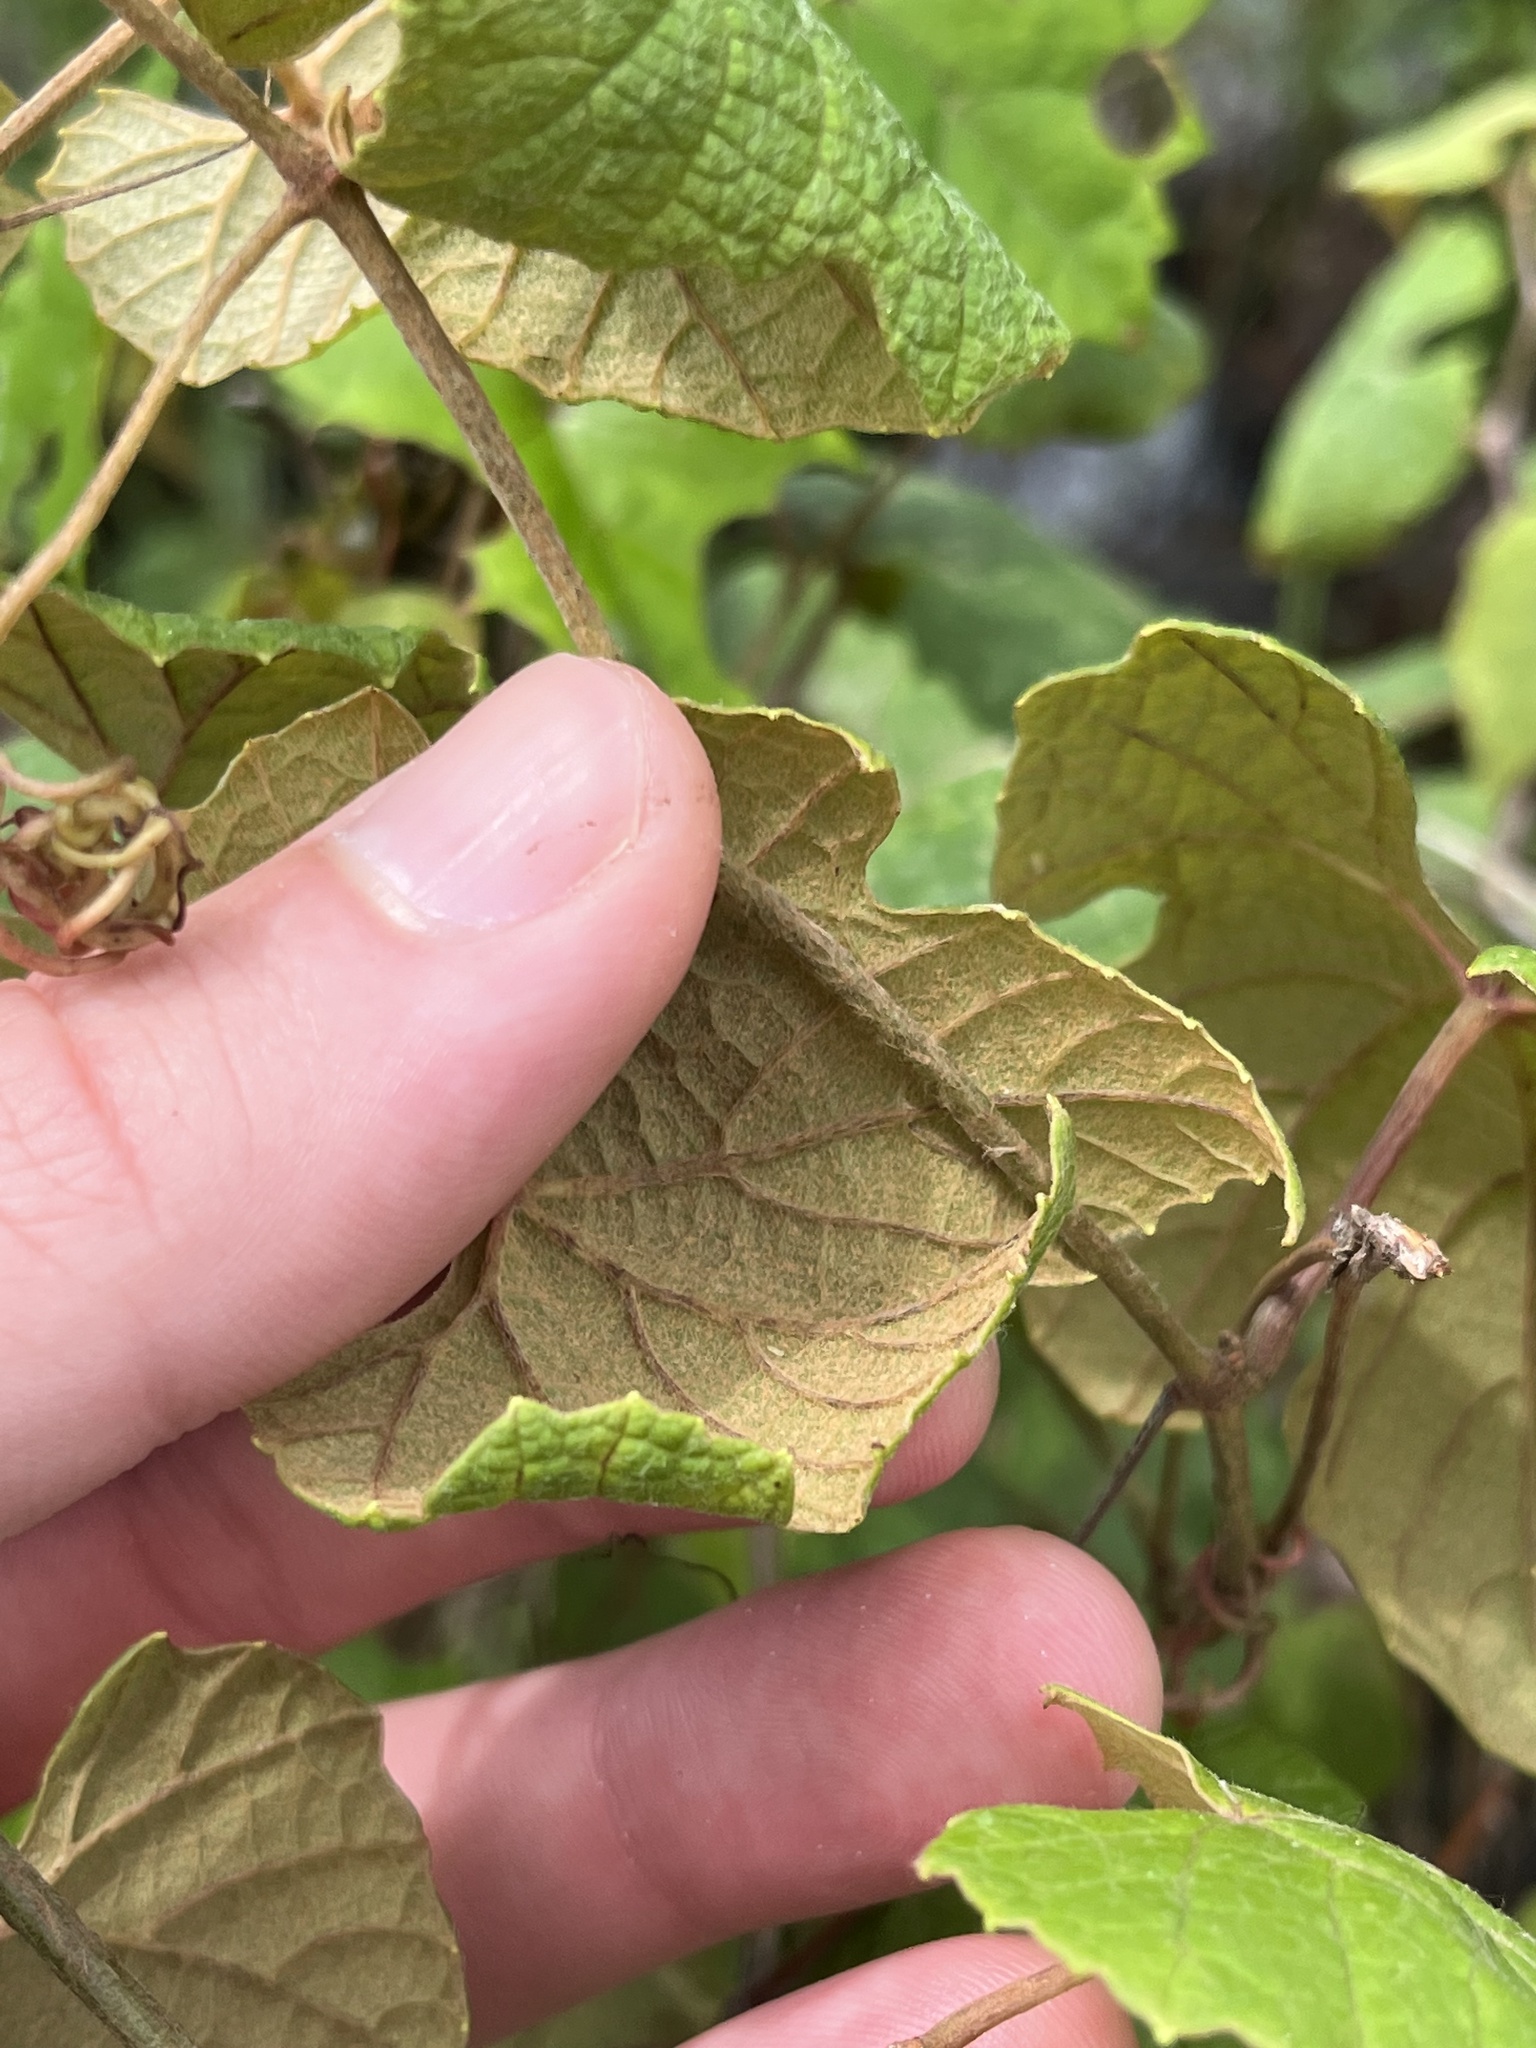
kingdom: Plantae
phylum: Tracheophyta
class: Magnoliopsida
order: Vitales
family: Vitaceae
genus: Vitis
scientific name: Vitis aestivalis
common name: Pigeon grape
